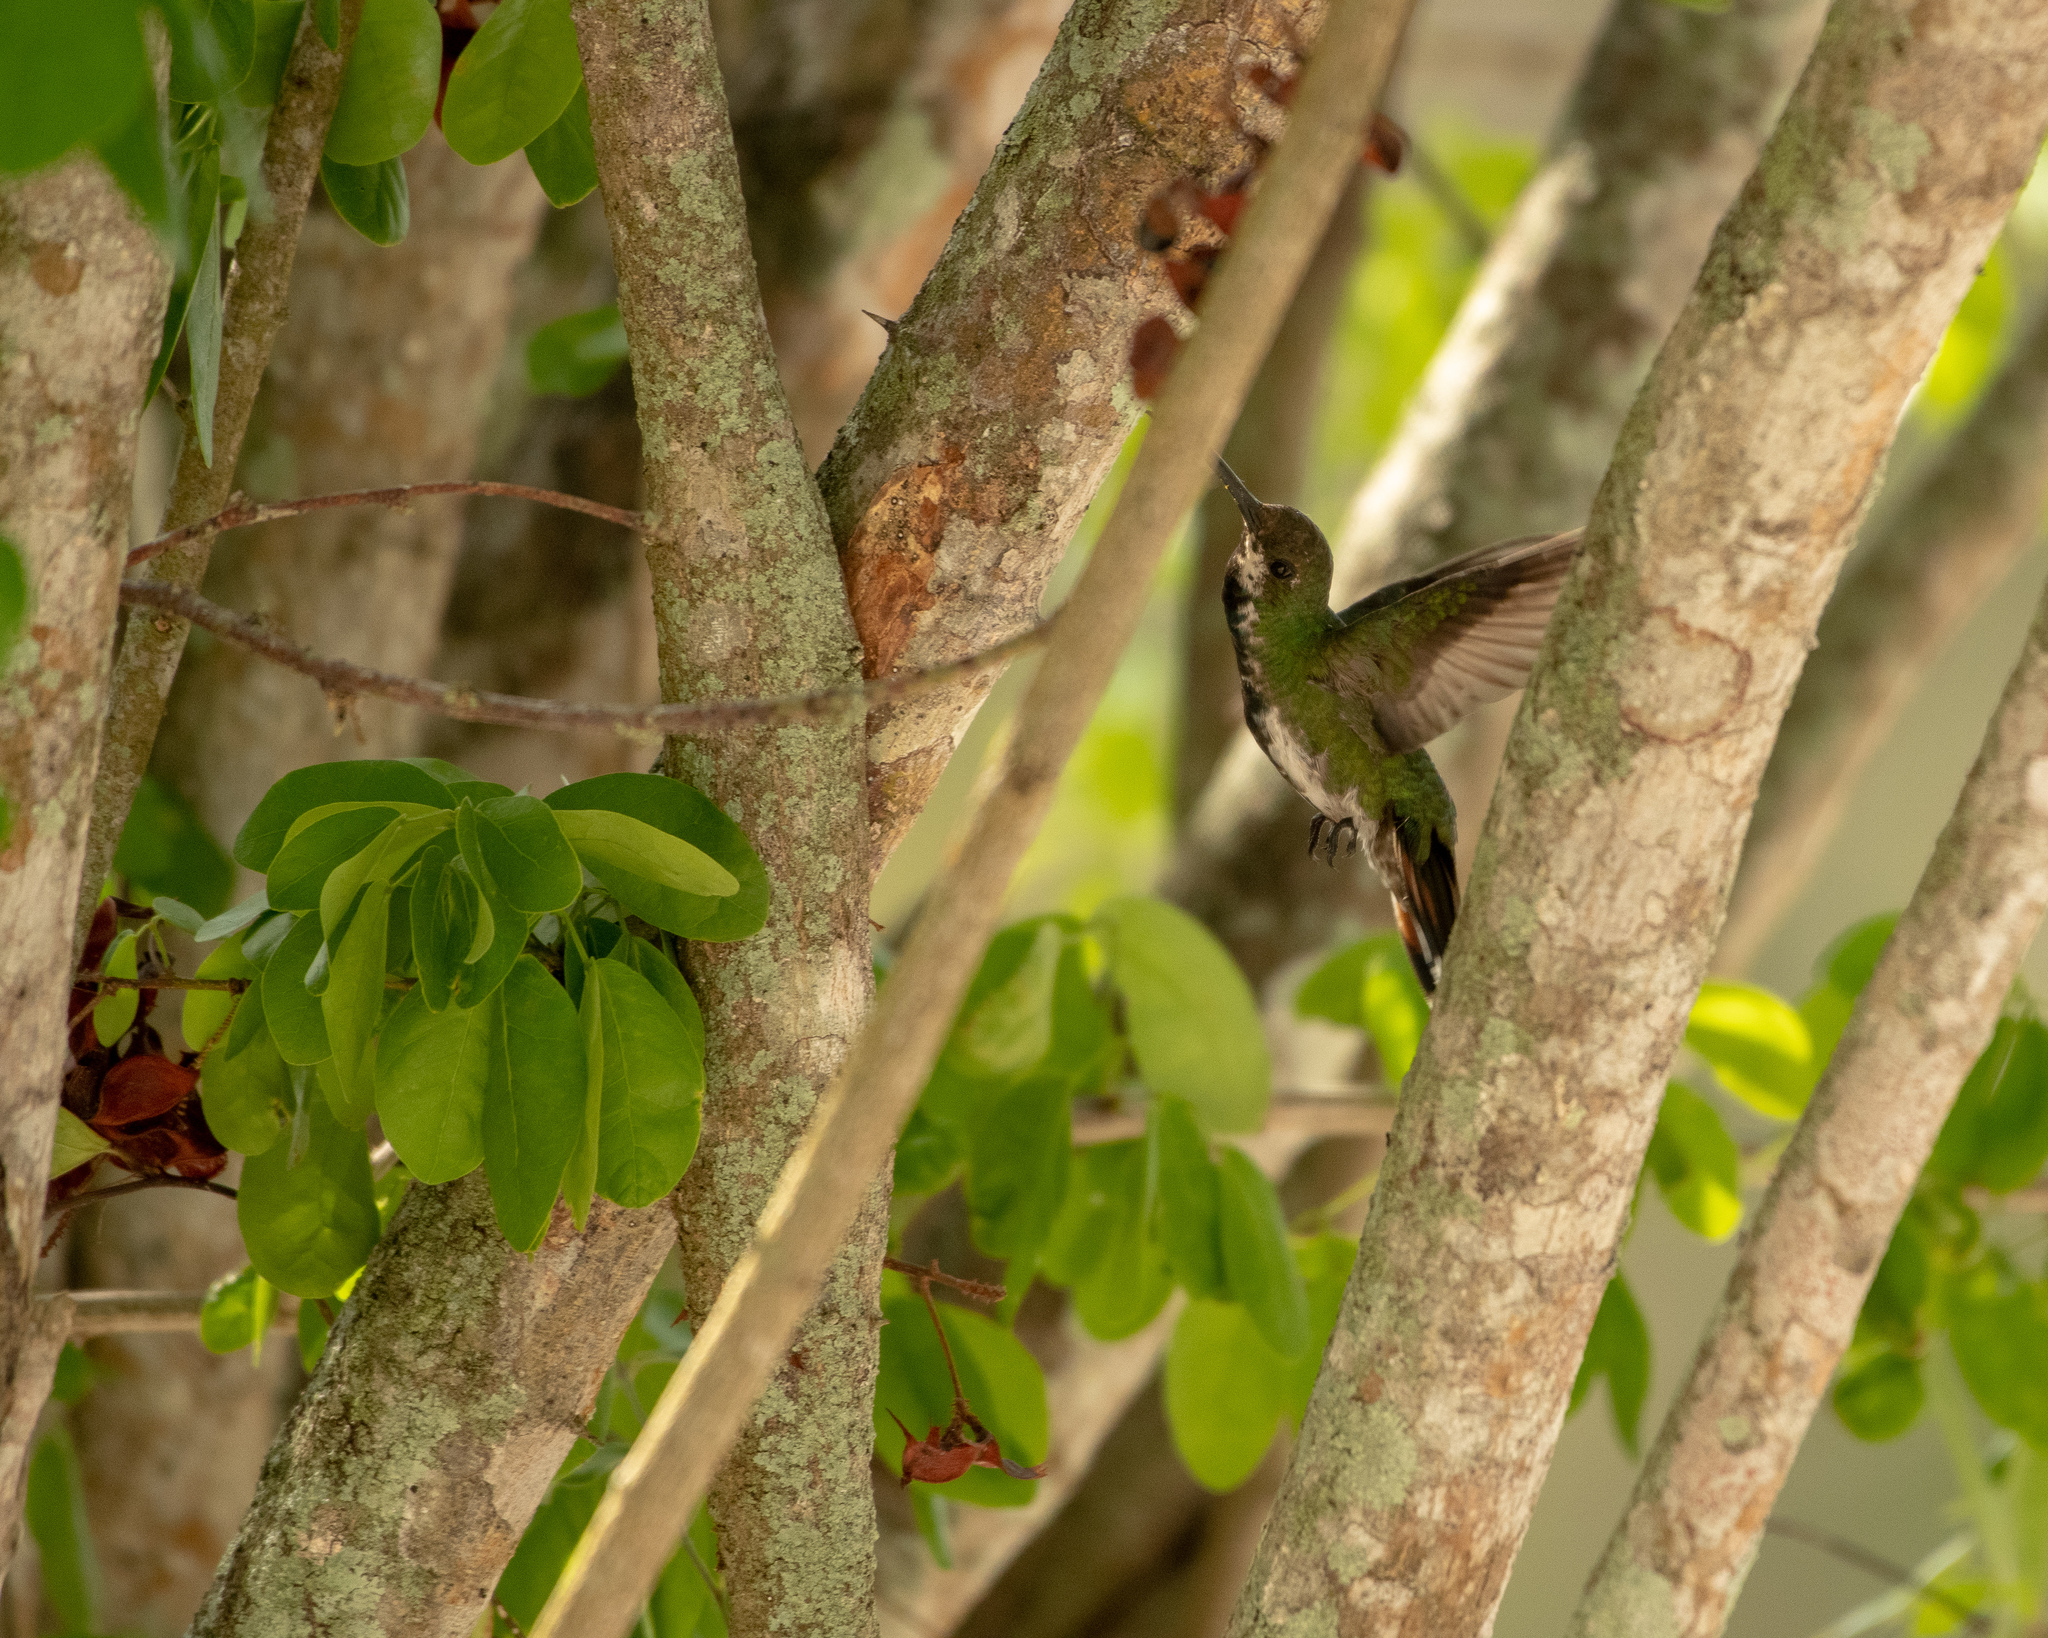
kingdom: Animalia
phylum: Chordata
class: Aves
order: Apodiformes
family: Trochilidae
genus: Anthracothorax
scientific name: Anthracothorax prevostii
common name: Green-breasted mango
